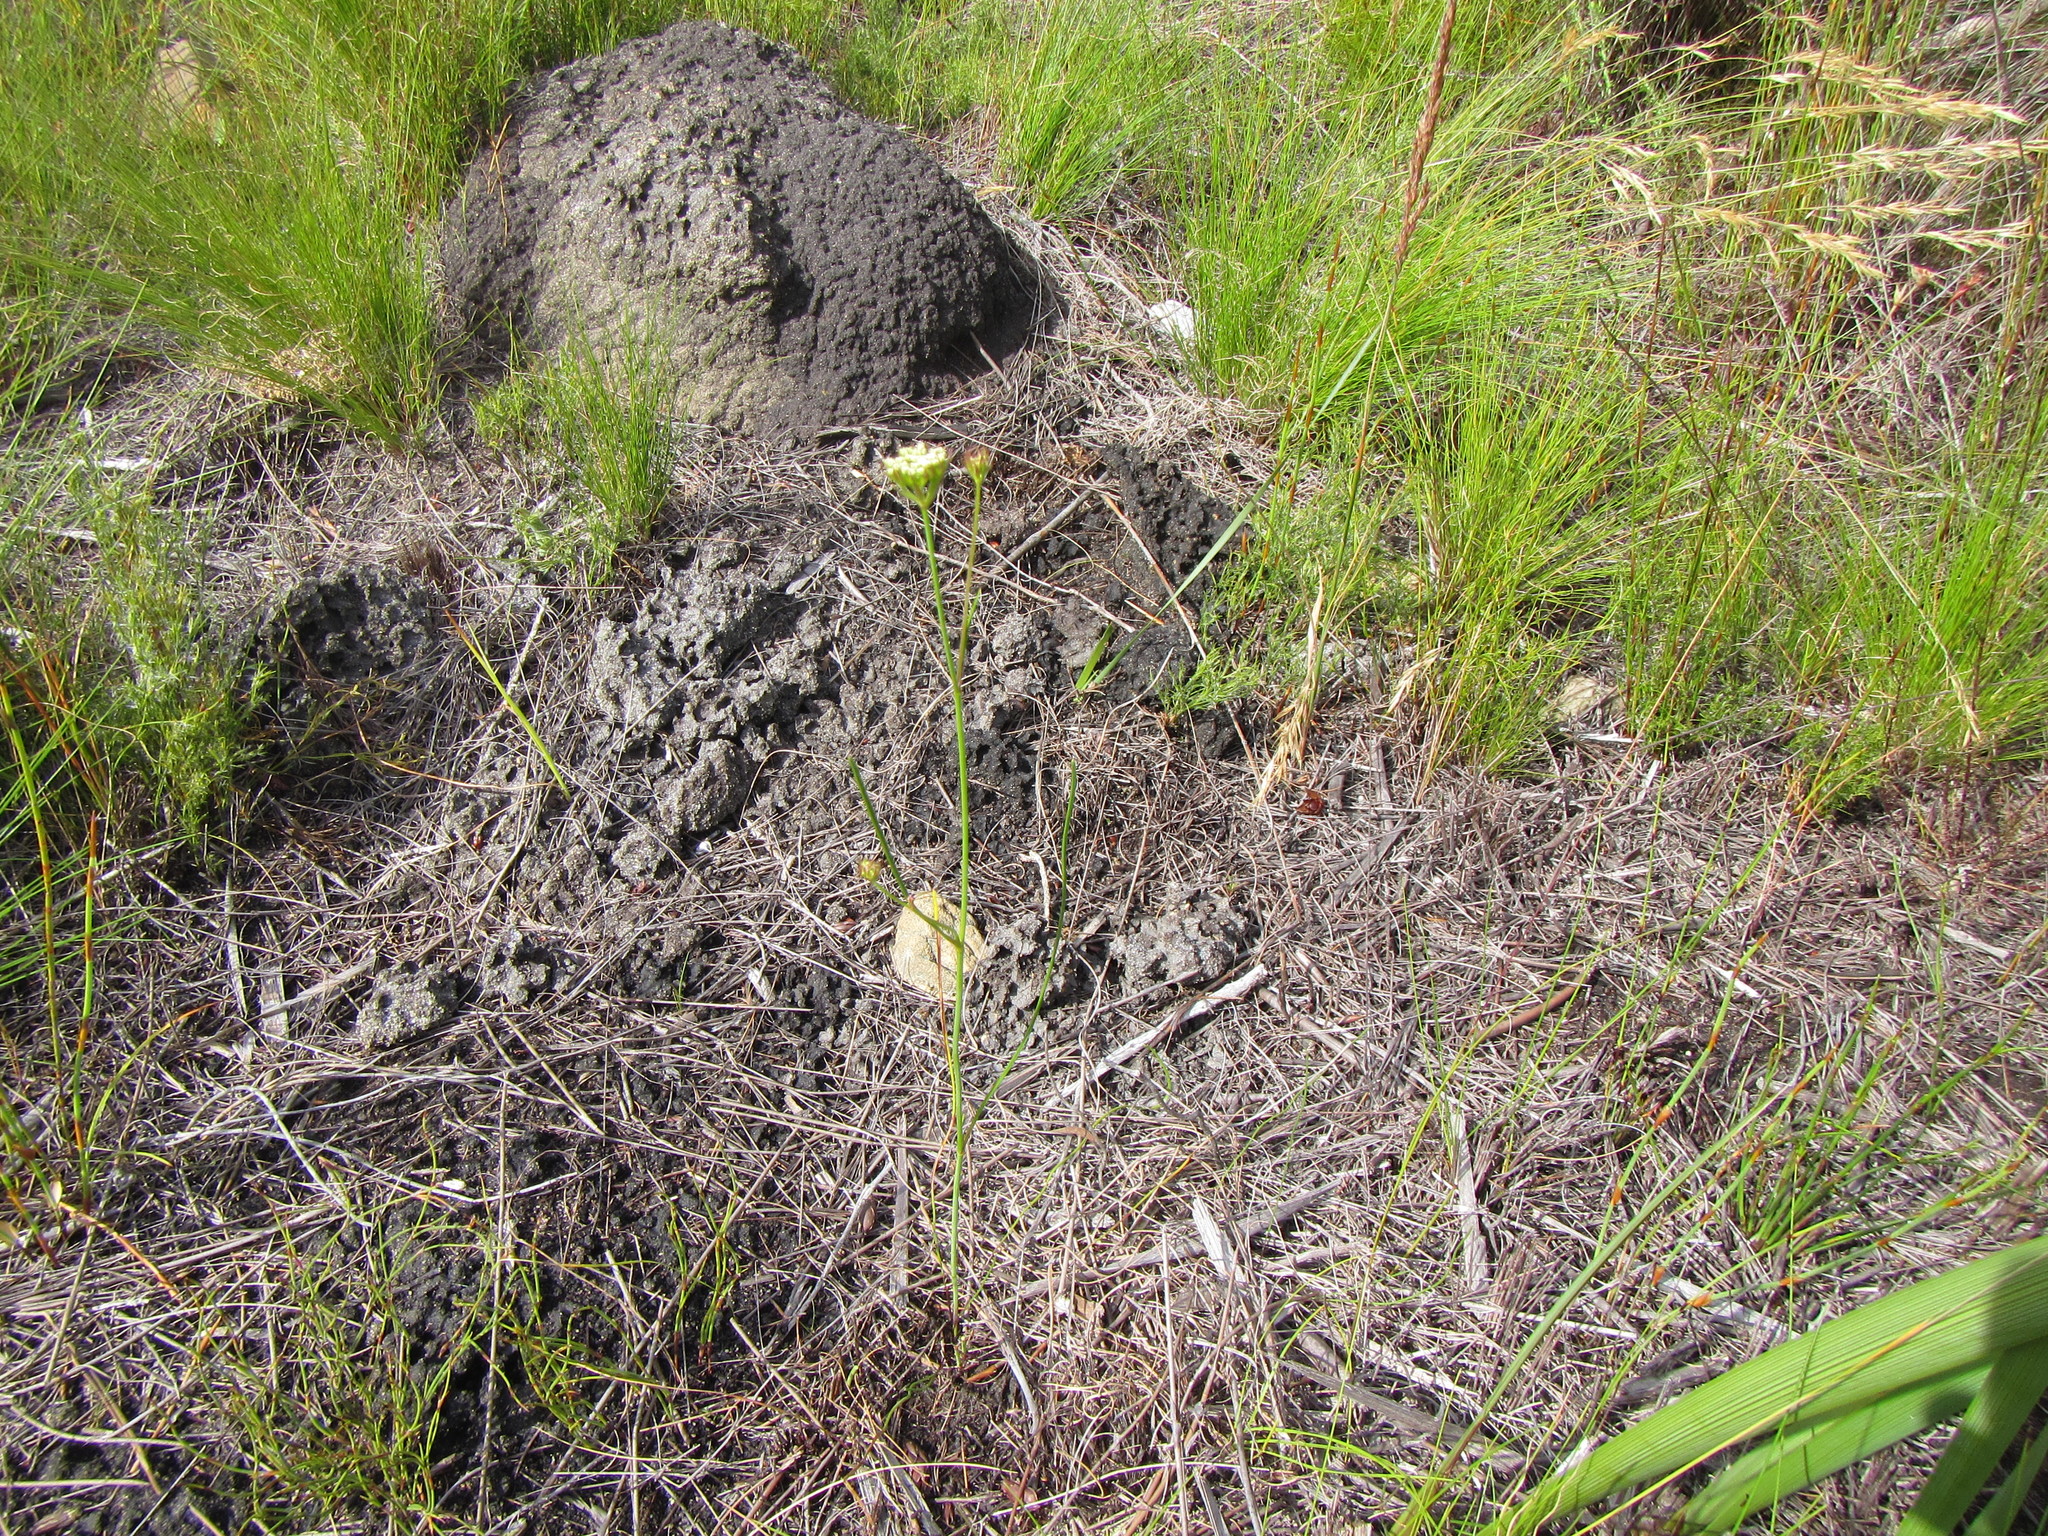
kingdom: Plantae
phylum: Tracheophyta
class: Magnoliopsida
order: Apiales
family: Apiaceae
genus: Itasina
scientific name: Itasina filifolia
